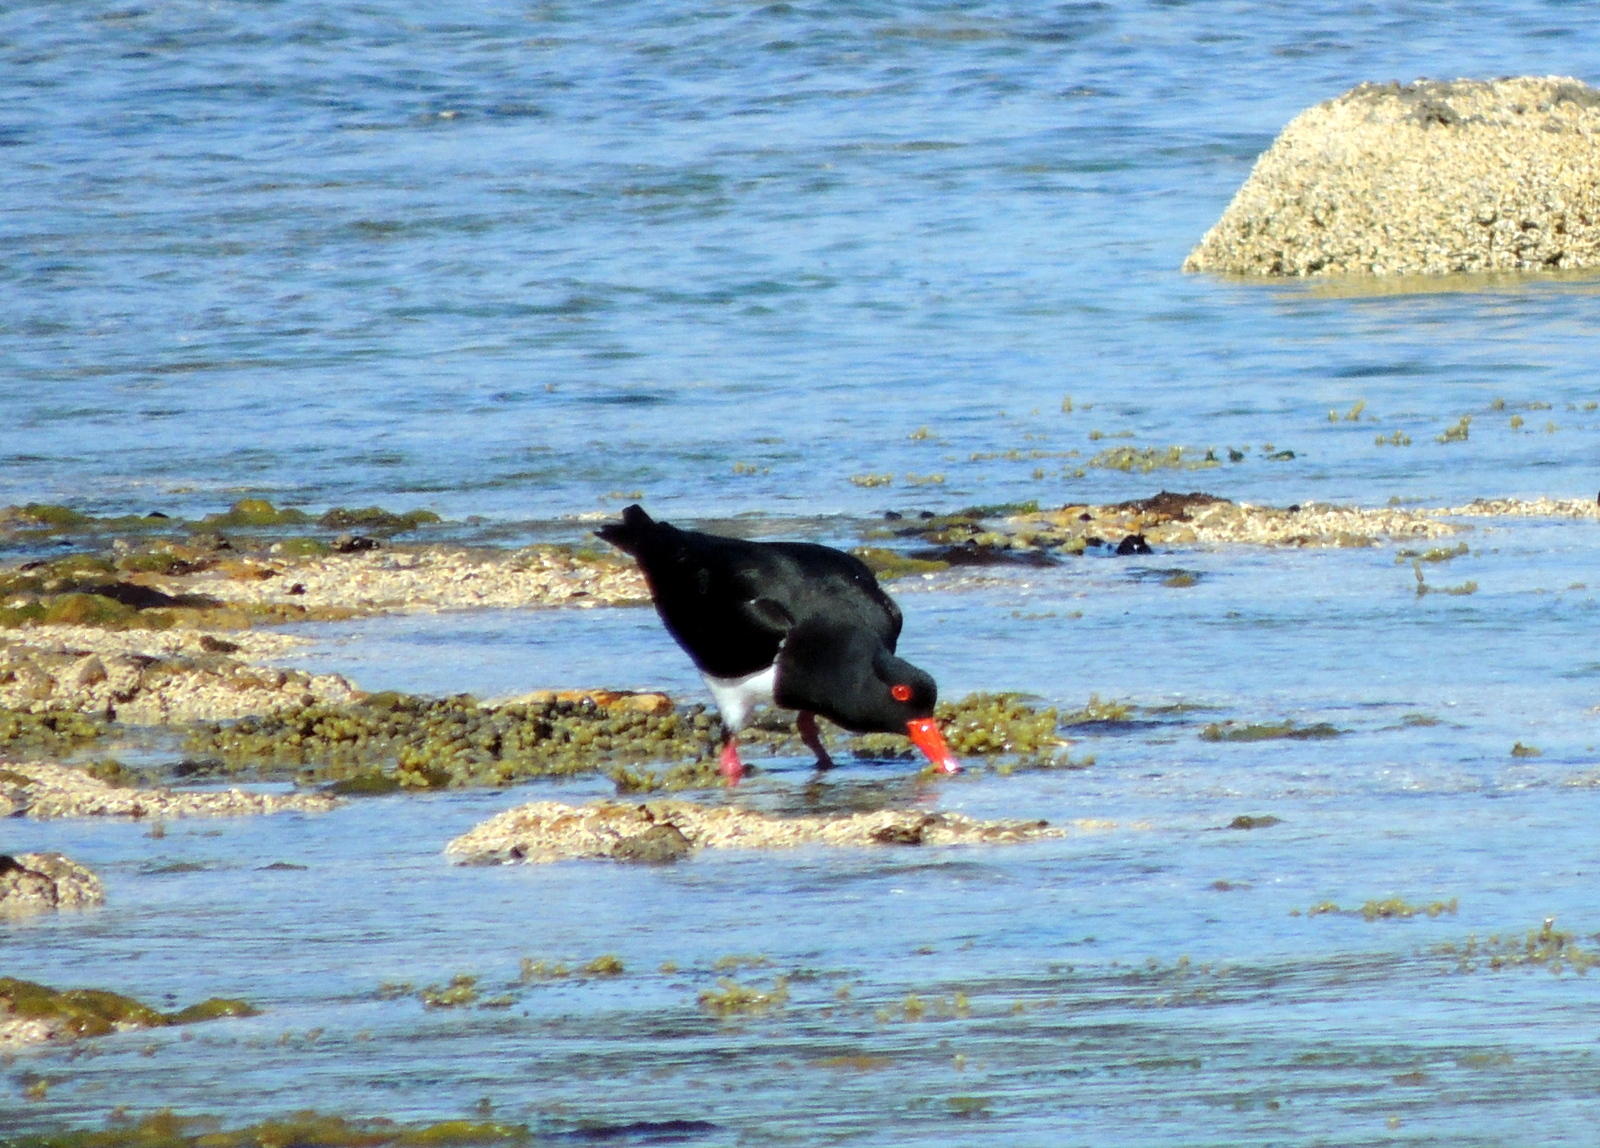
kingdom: Animalia
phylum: Chordata
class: Aves
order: Charadriiformes
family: Haematopodidae
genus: Haematopus
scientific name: Haematopus longirostris
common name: Pied oystercatcher
